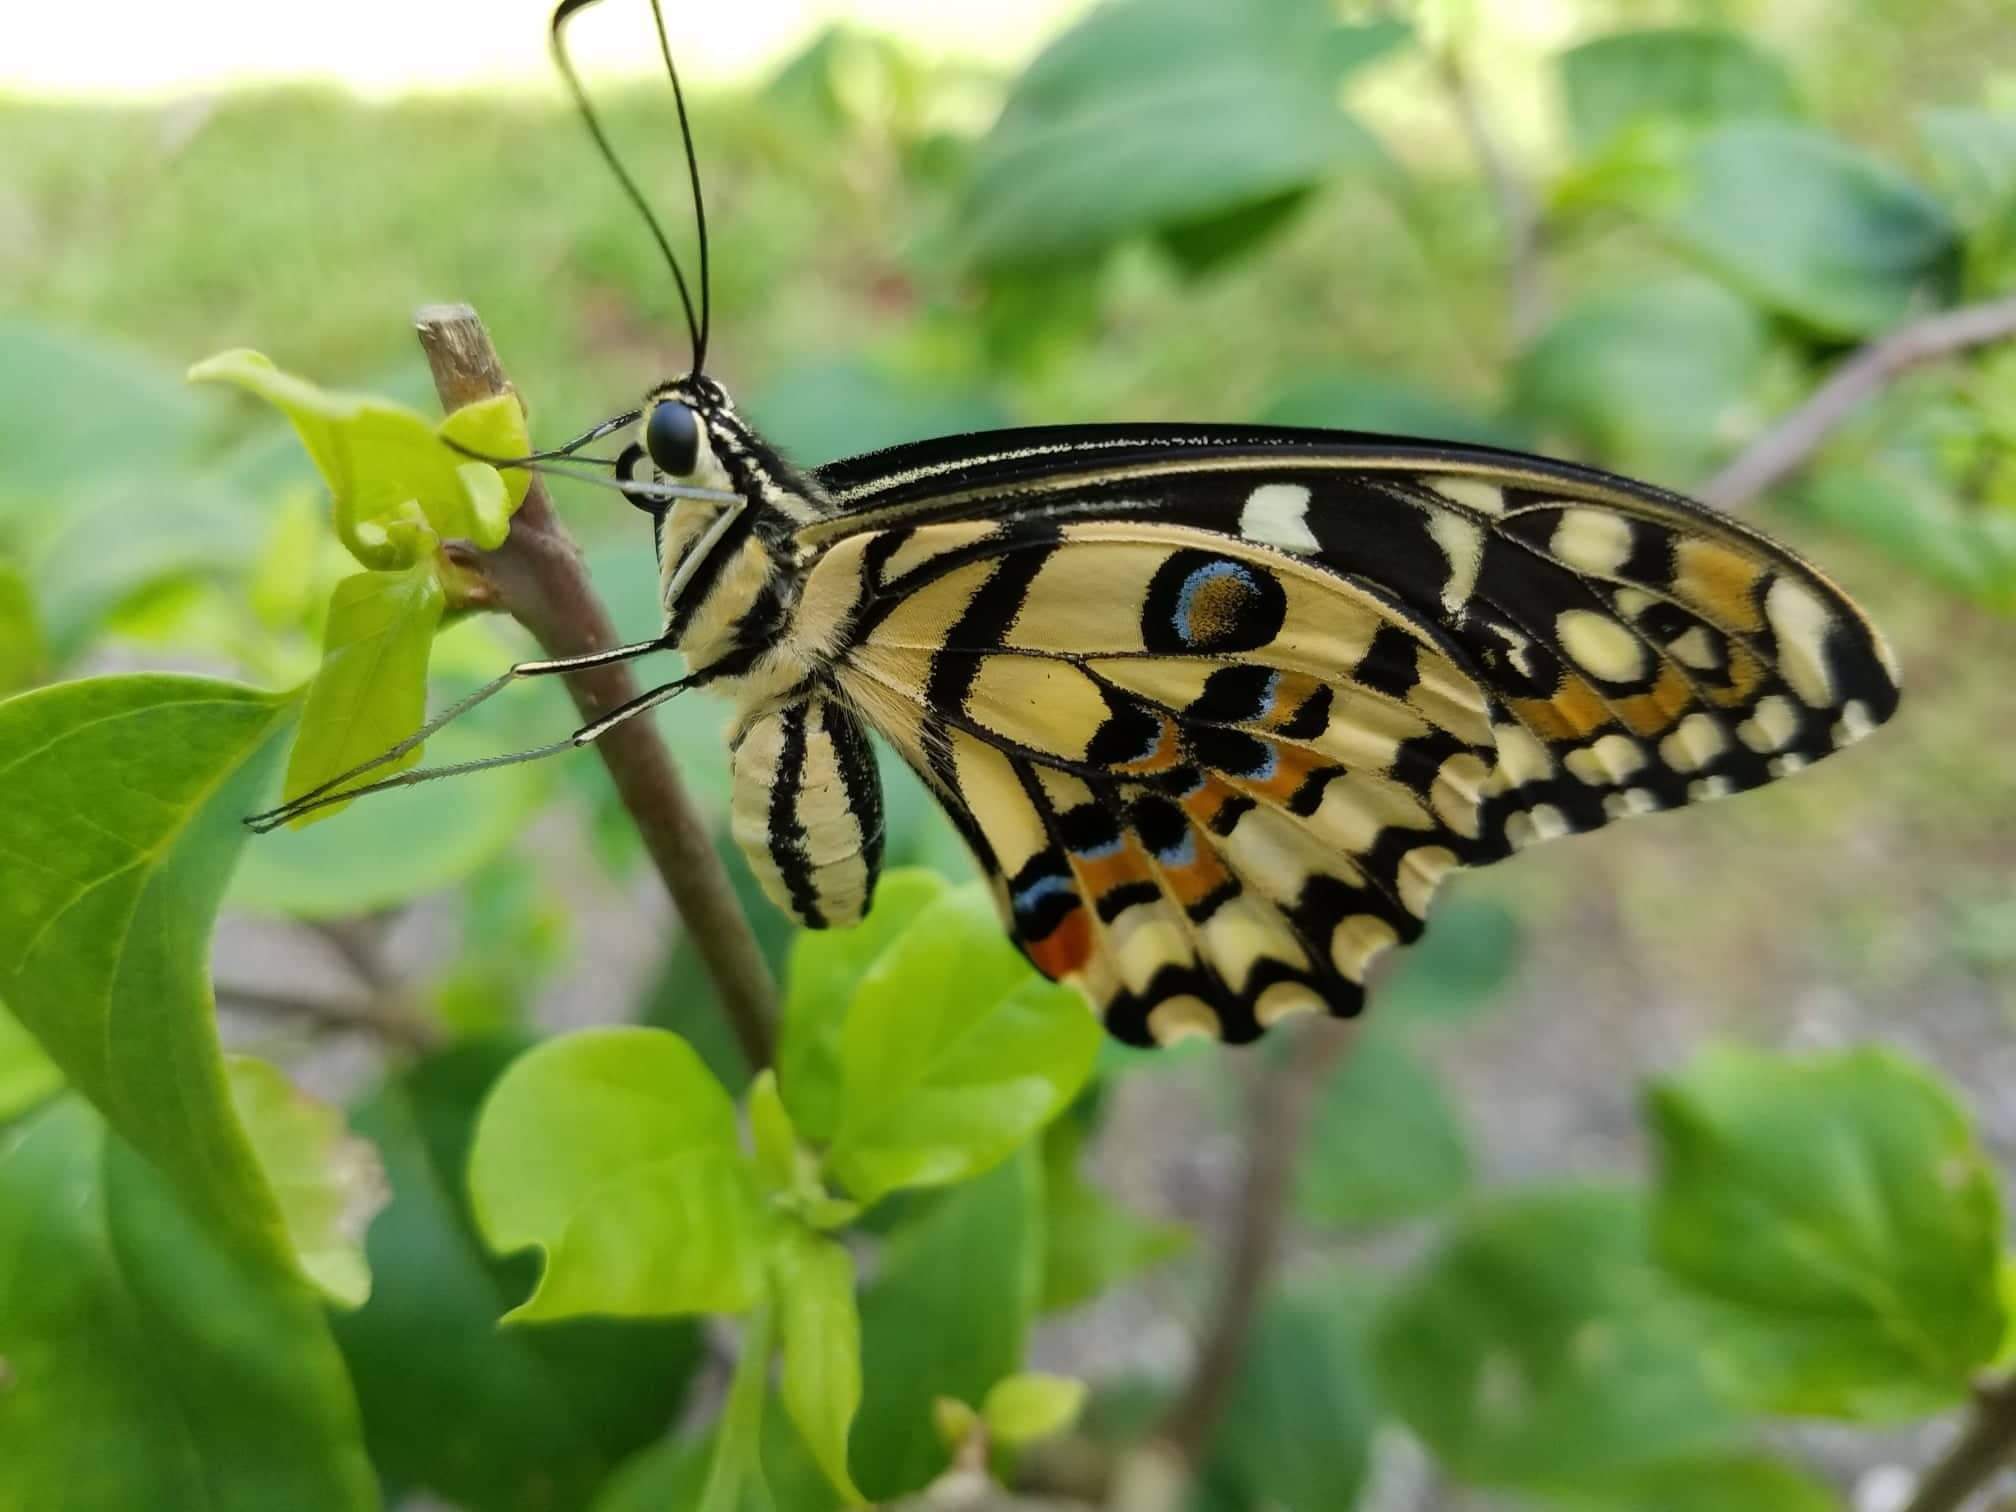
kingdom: Animalia
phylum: Arthropoda
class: Insecta
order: Lepidoptera
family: Papilionidae
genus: Papilio
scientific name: Papilio demoleus
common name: Lime butterfly
